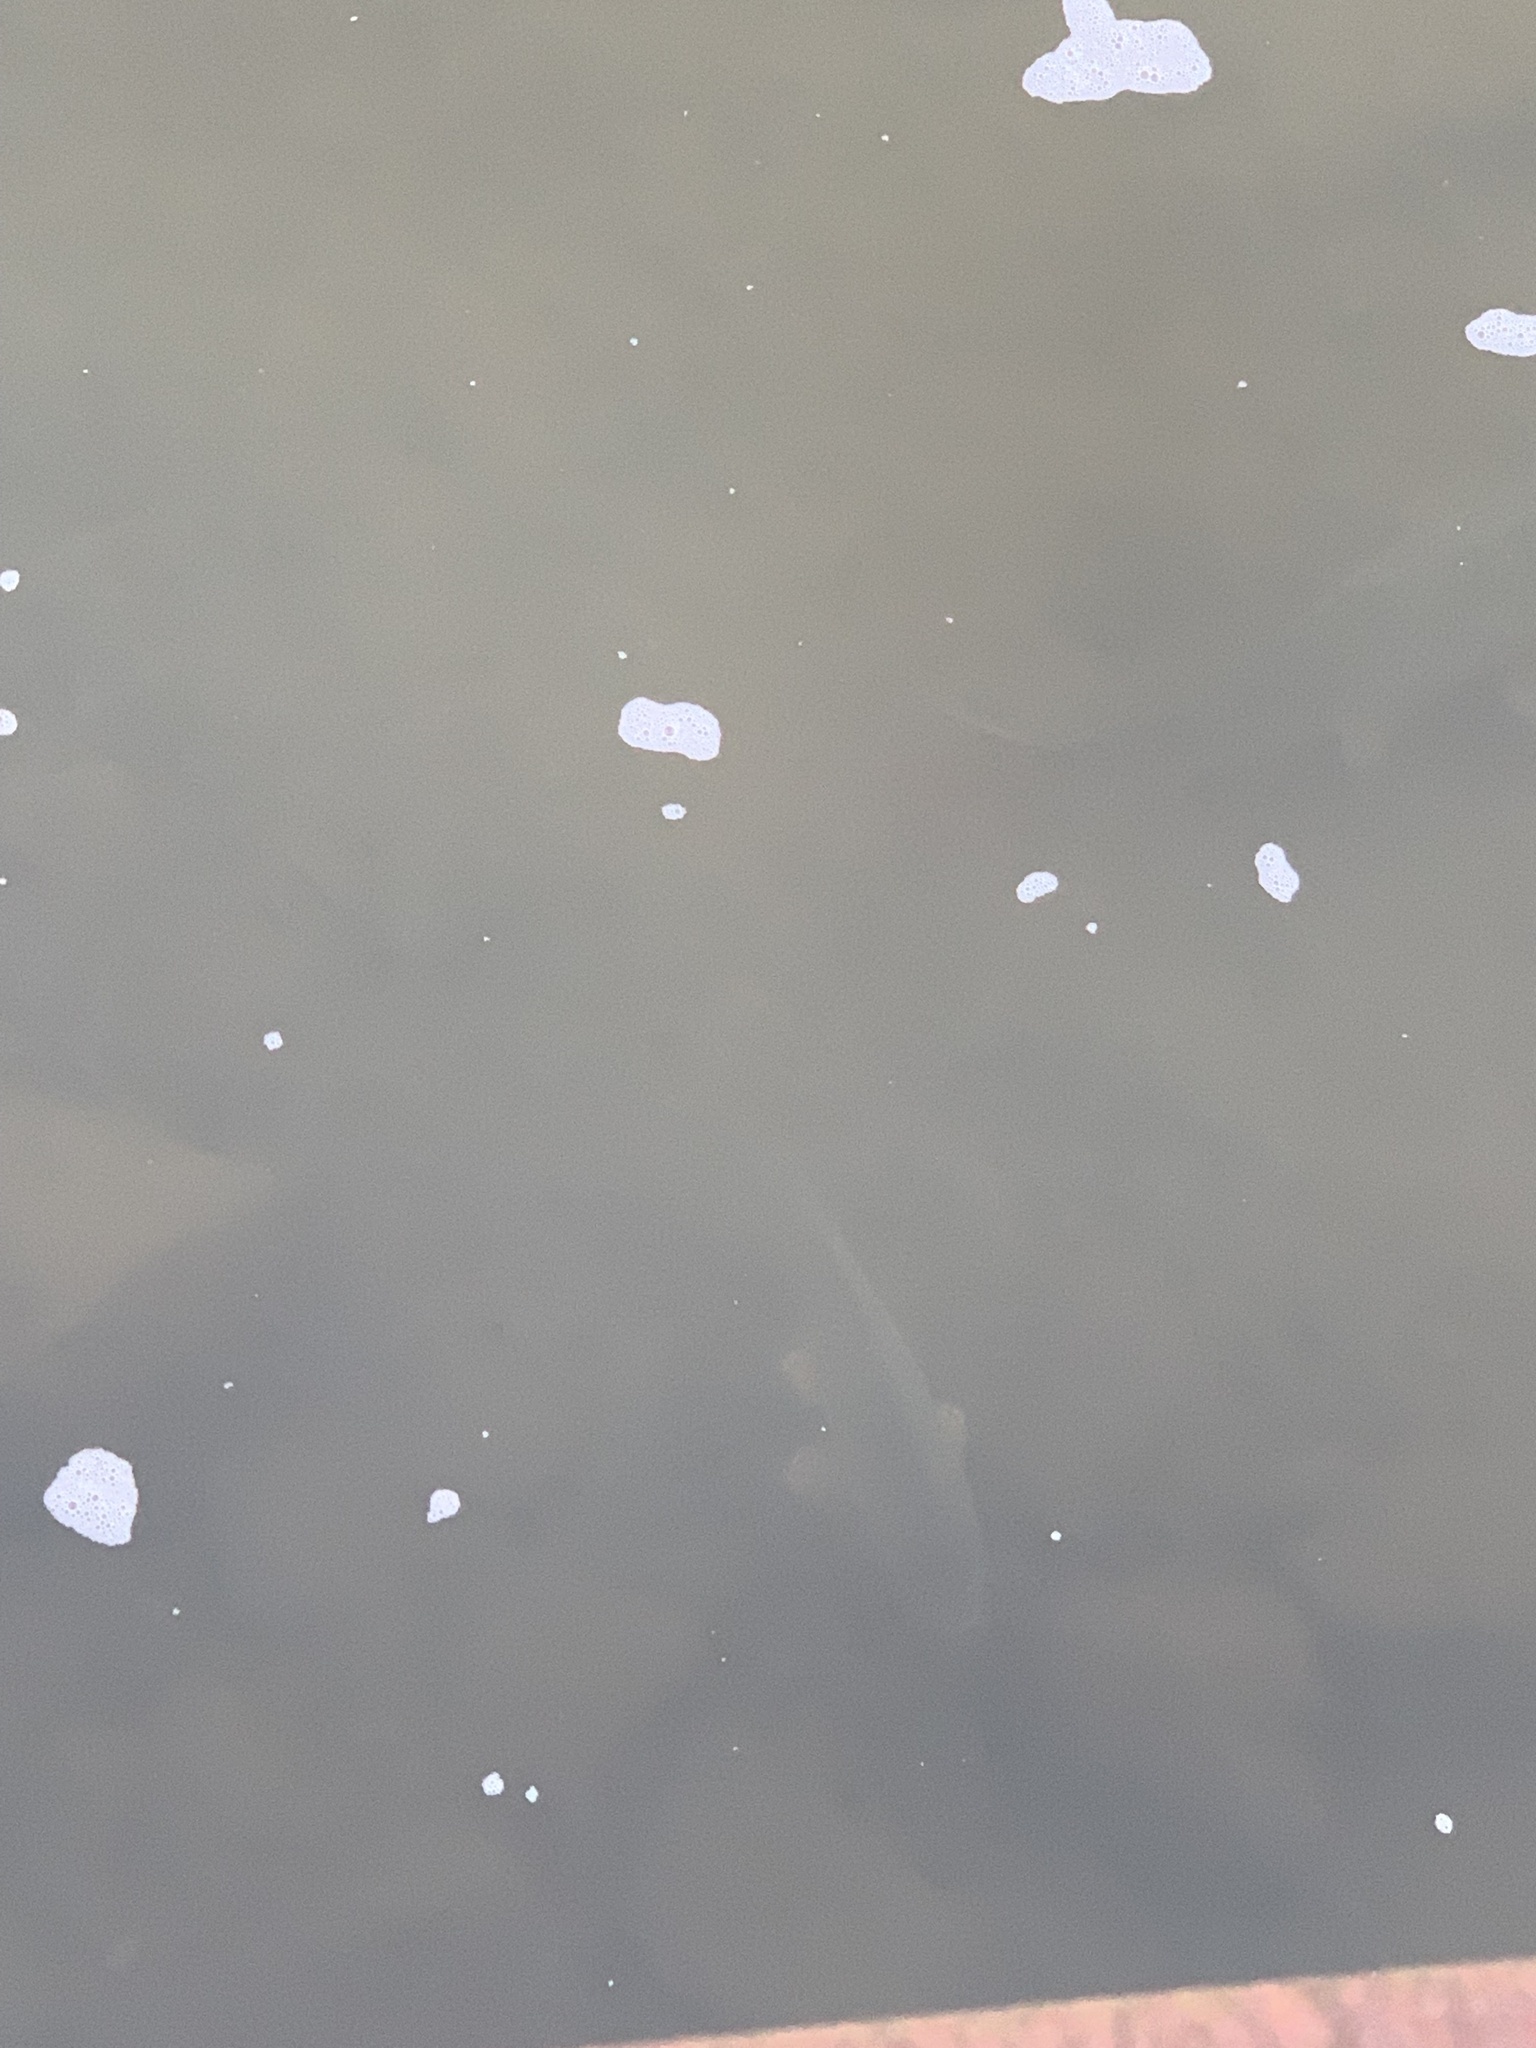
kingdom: Animalia
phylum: Chordata
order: Cypriniformes
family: Cyprinidae
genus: Cyprinus
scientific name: Cyprinus carpio
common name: Common carp
